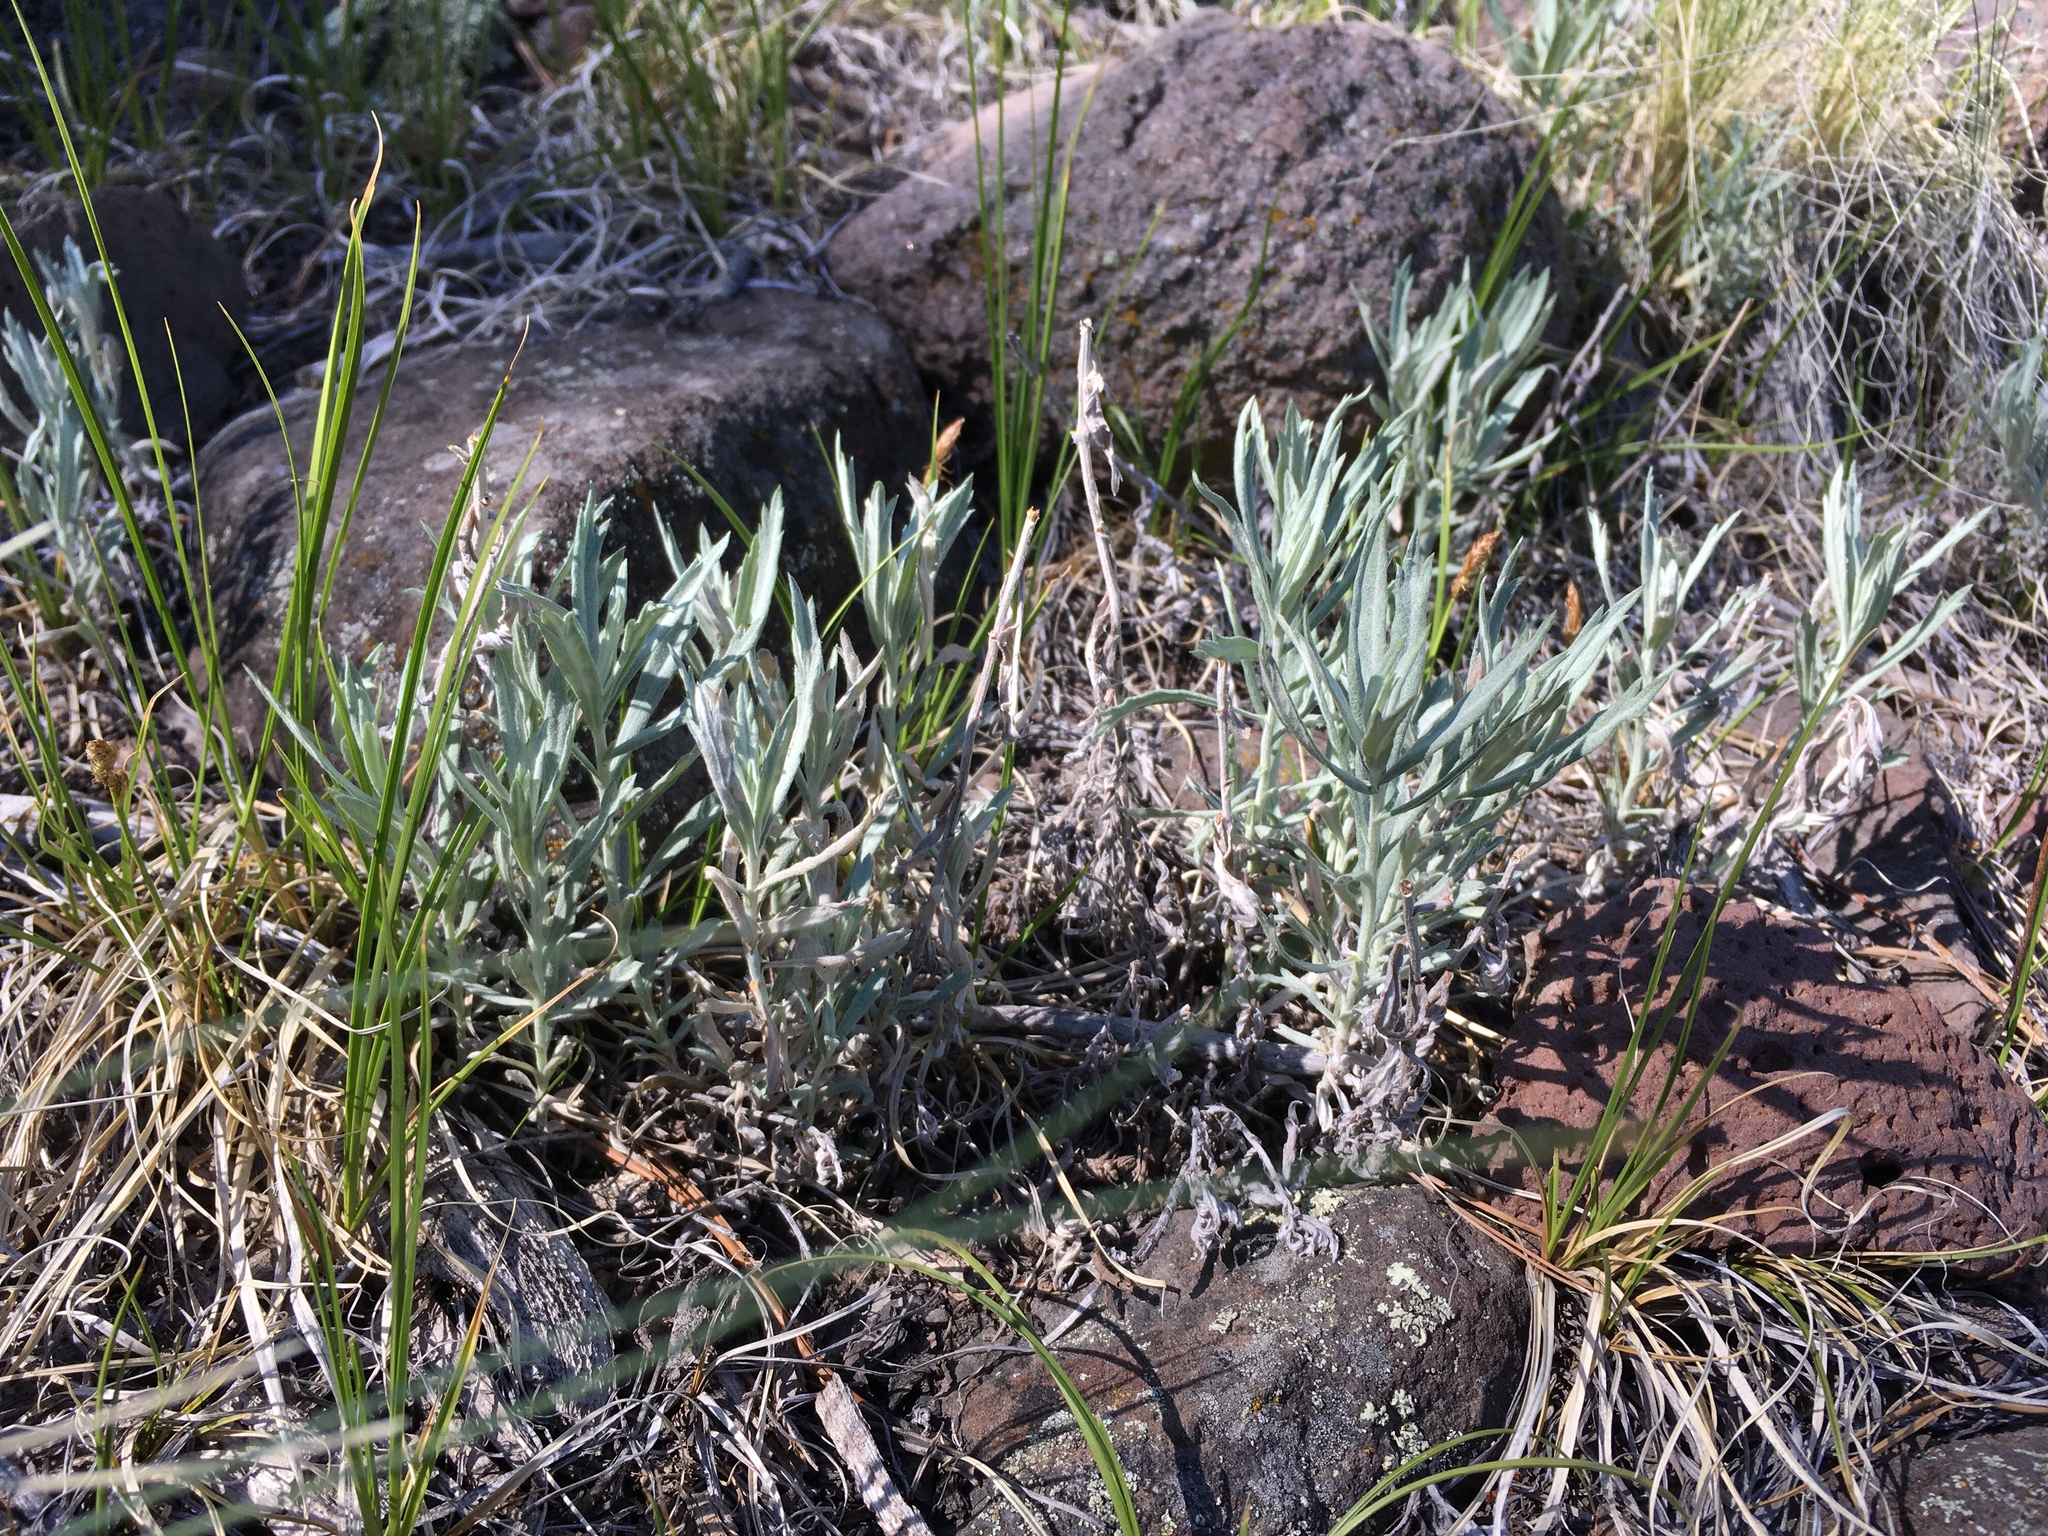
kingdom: Plantae
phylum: Tracheophyta
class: Magnoliopsida
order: Asterales
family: Asteraceae
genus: Artemisia
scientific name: Artemisia ludoviciana
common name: Western mugwort
